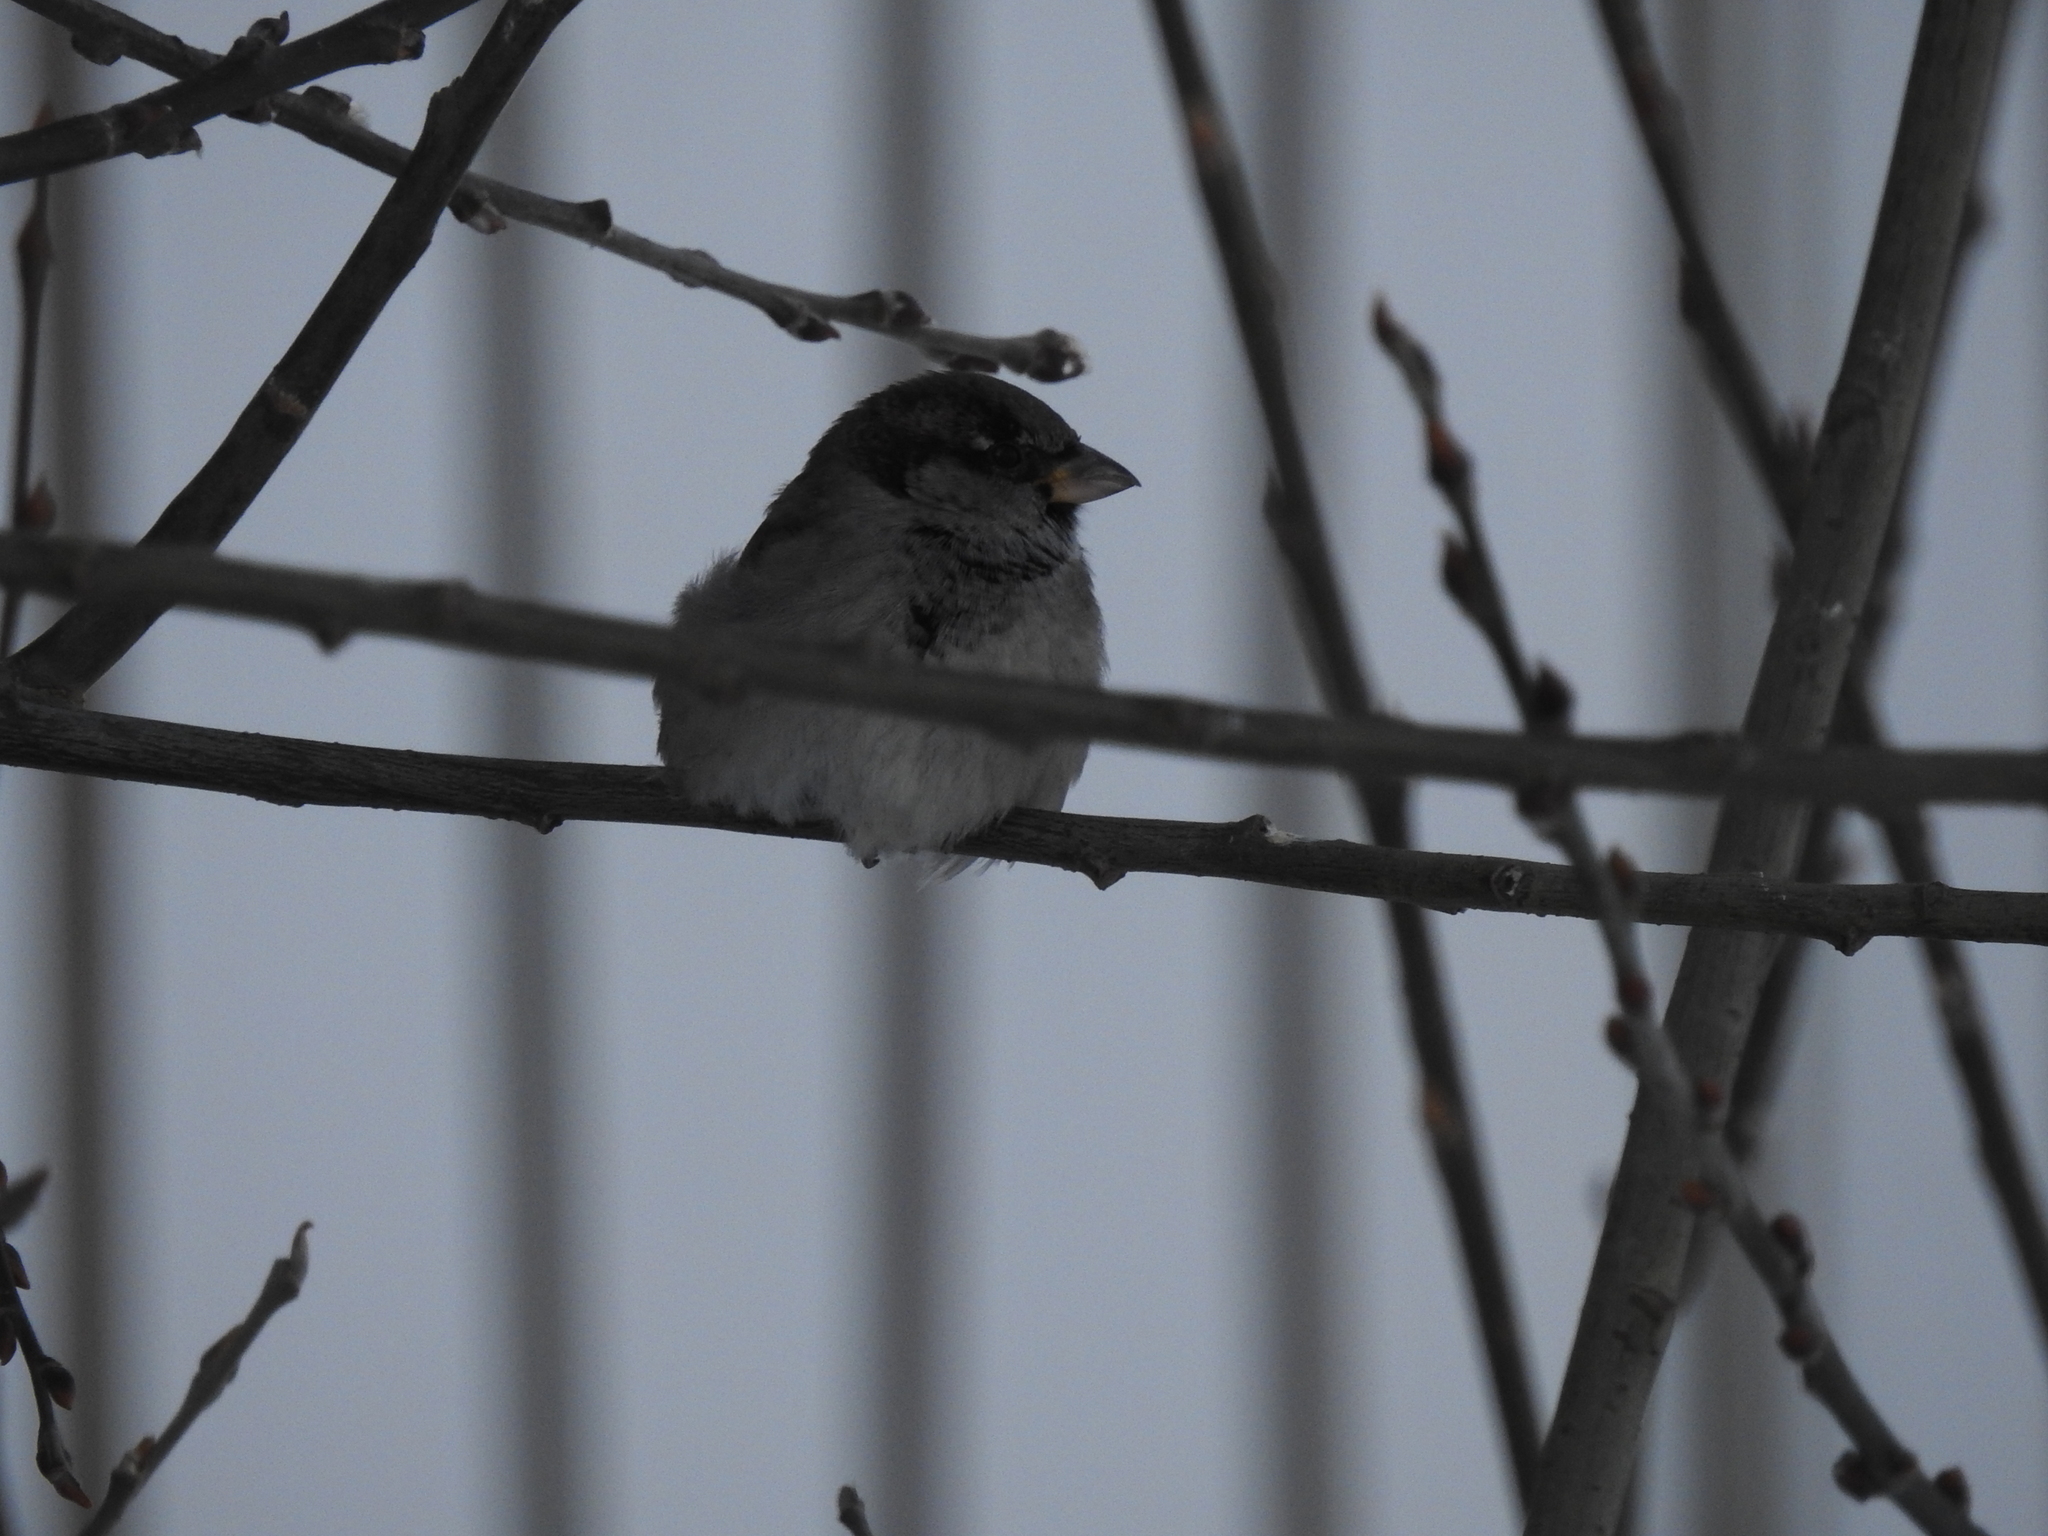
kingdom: Animalia
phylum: Chordata
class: Aves
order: Passeriformes
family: Passeridae
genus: Passer
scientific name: Passer domesticus
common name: House sparrow
